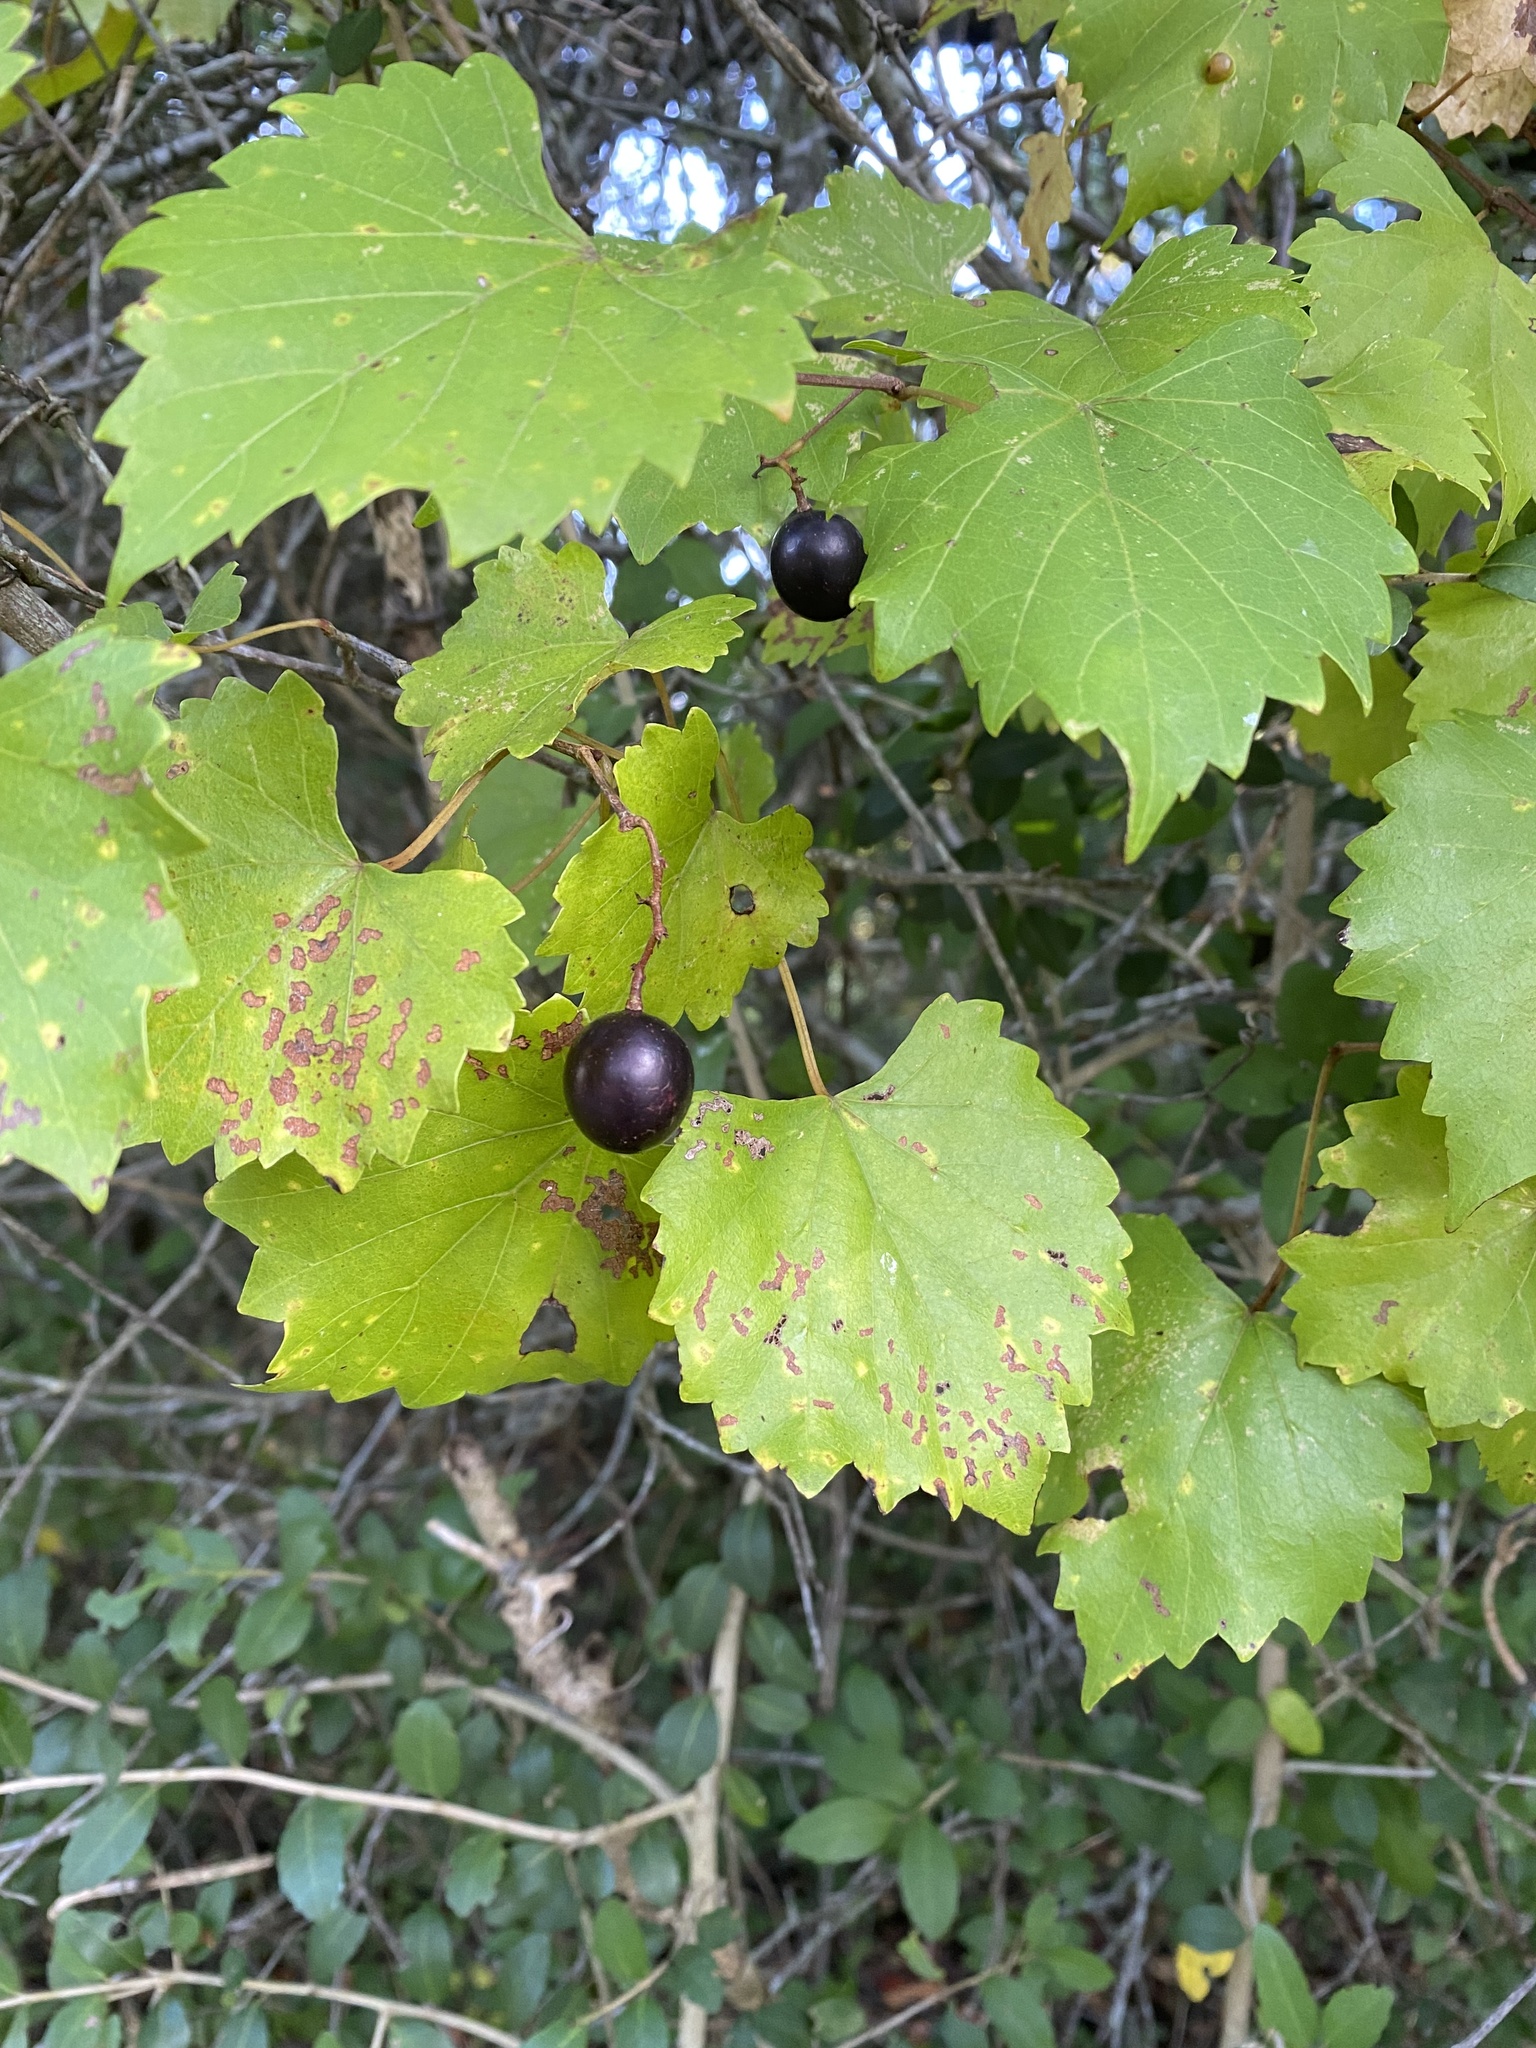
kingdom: Plantae
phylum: Tracheophyta
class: Magnoliopsida
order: Vitales
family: Vitaceae
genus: Vitis
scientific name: Vitis rotundifolia
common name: Muscadine grape
